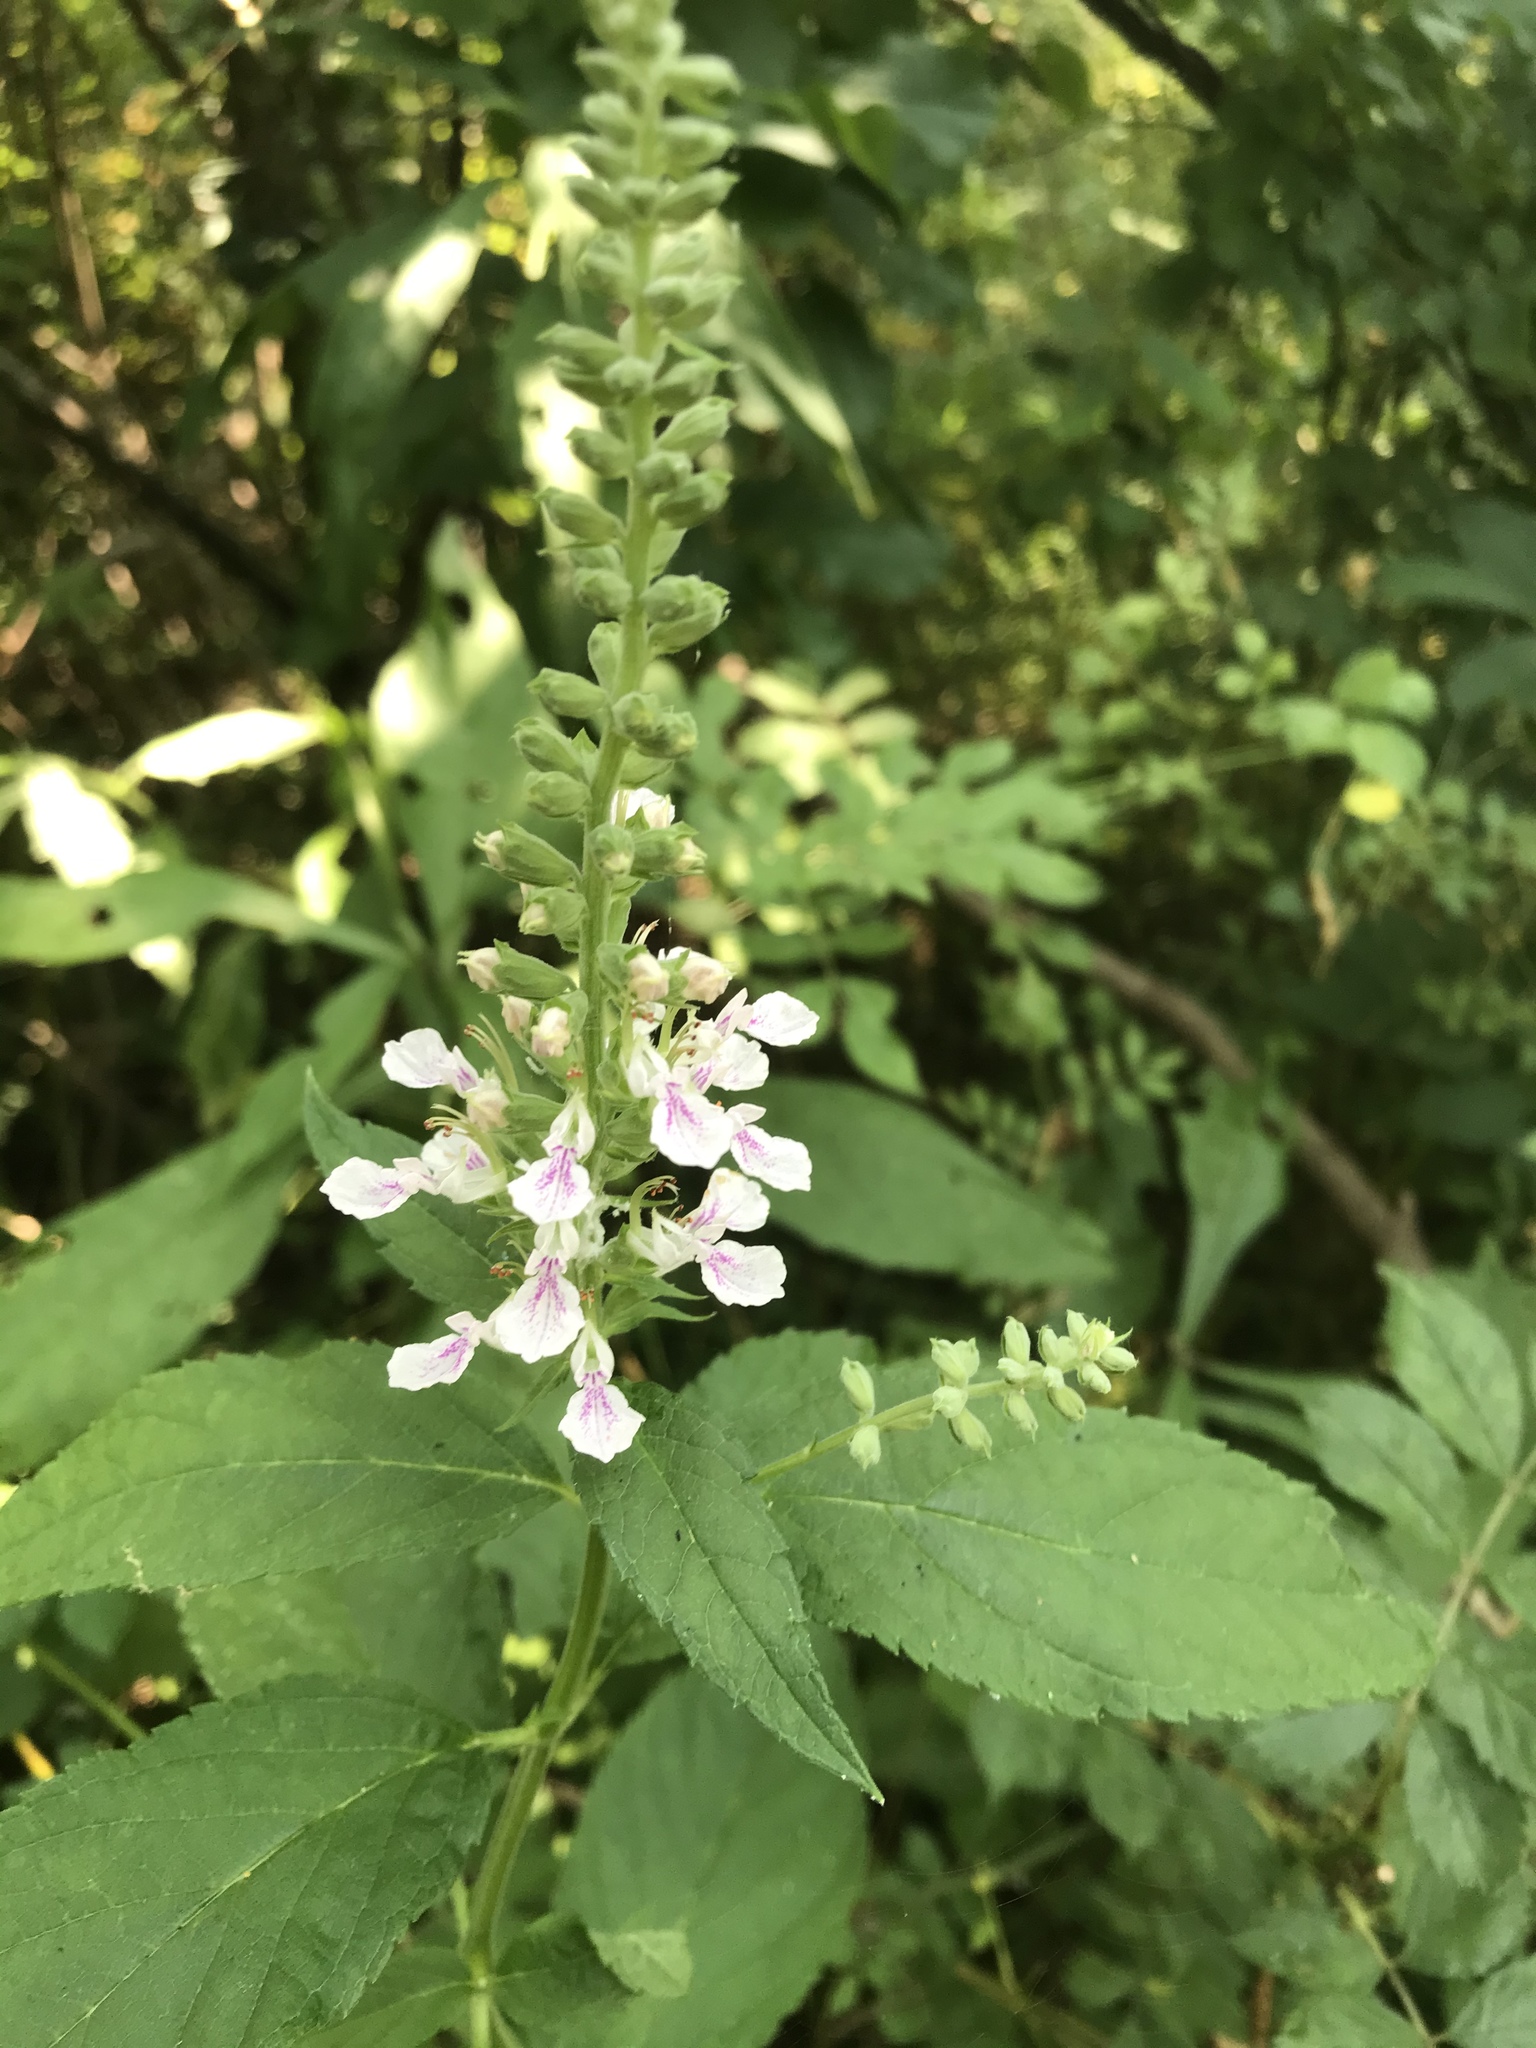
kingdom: Plantae
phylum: Tracheophyta
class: Magnoliopsida
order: Lamiales
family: Lamiaceae
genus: Teucrium
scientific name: Teucrium canadense
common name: American germander
